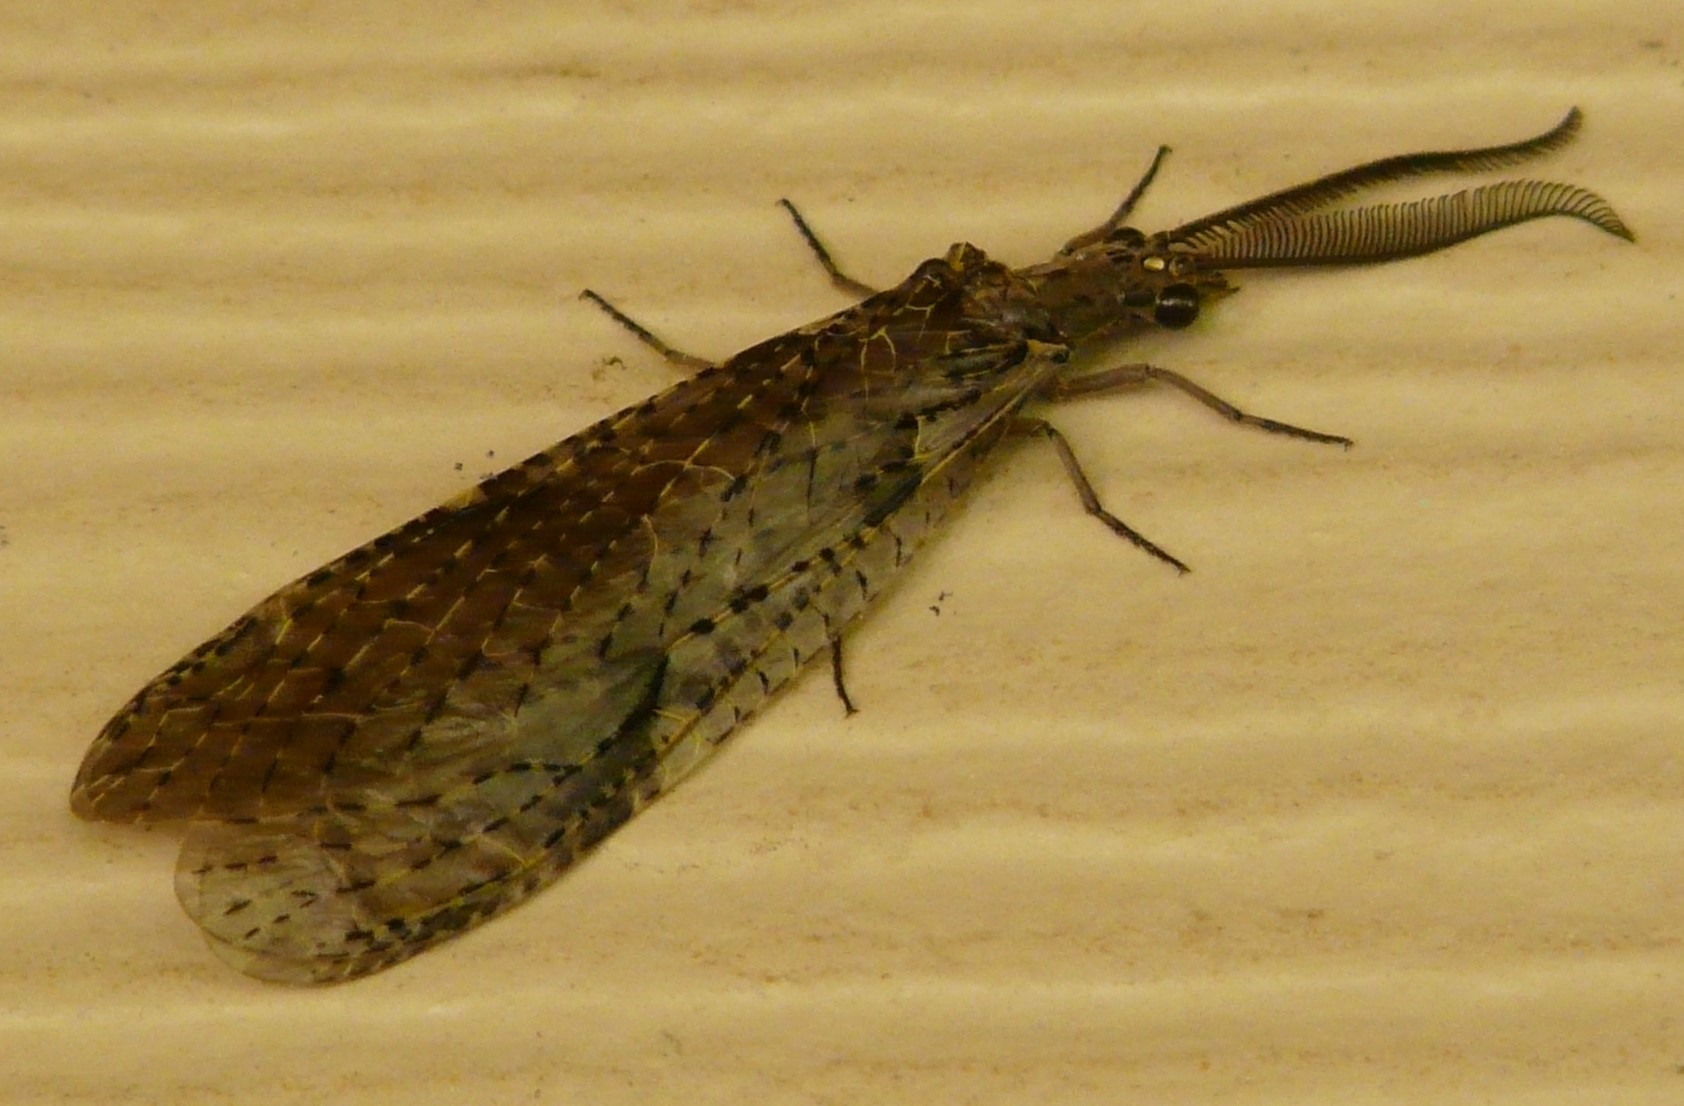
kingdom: Animalia
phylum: Arthropoda
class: Insecta
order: Megaloptera
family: Corydalidae
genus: Chauliodes
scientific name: Chauliodes rastricornis
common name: Spring fishfly
